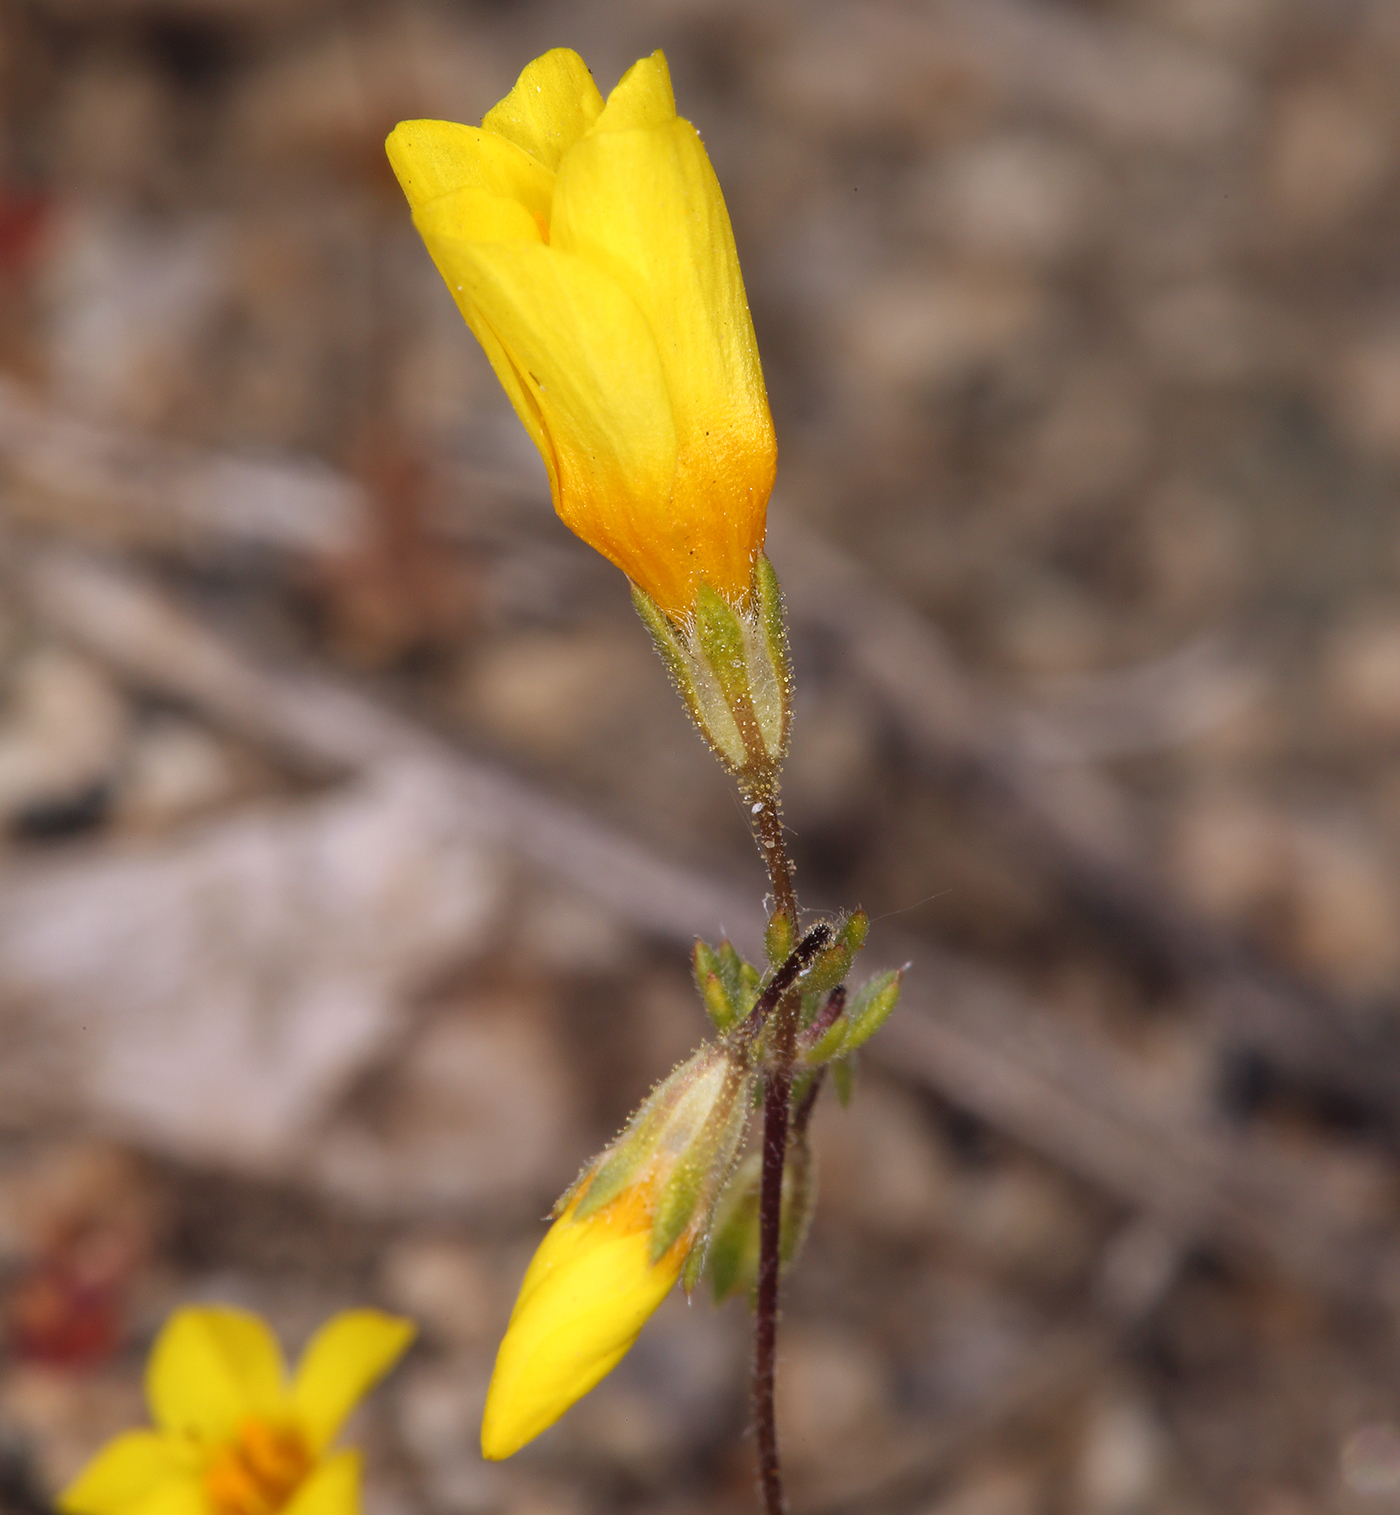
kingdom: Plantae
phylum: Tracheophyta
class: Magnoliopsida
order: Ericales
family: Polemoniaceae
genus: Leptosiphon
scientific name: Leptosiphon chrysanthus
